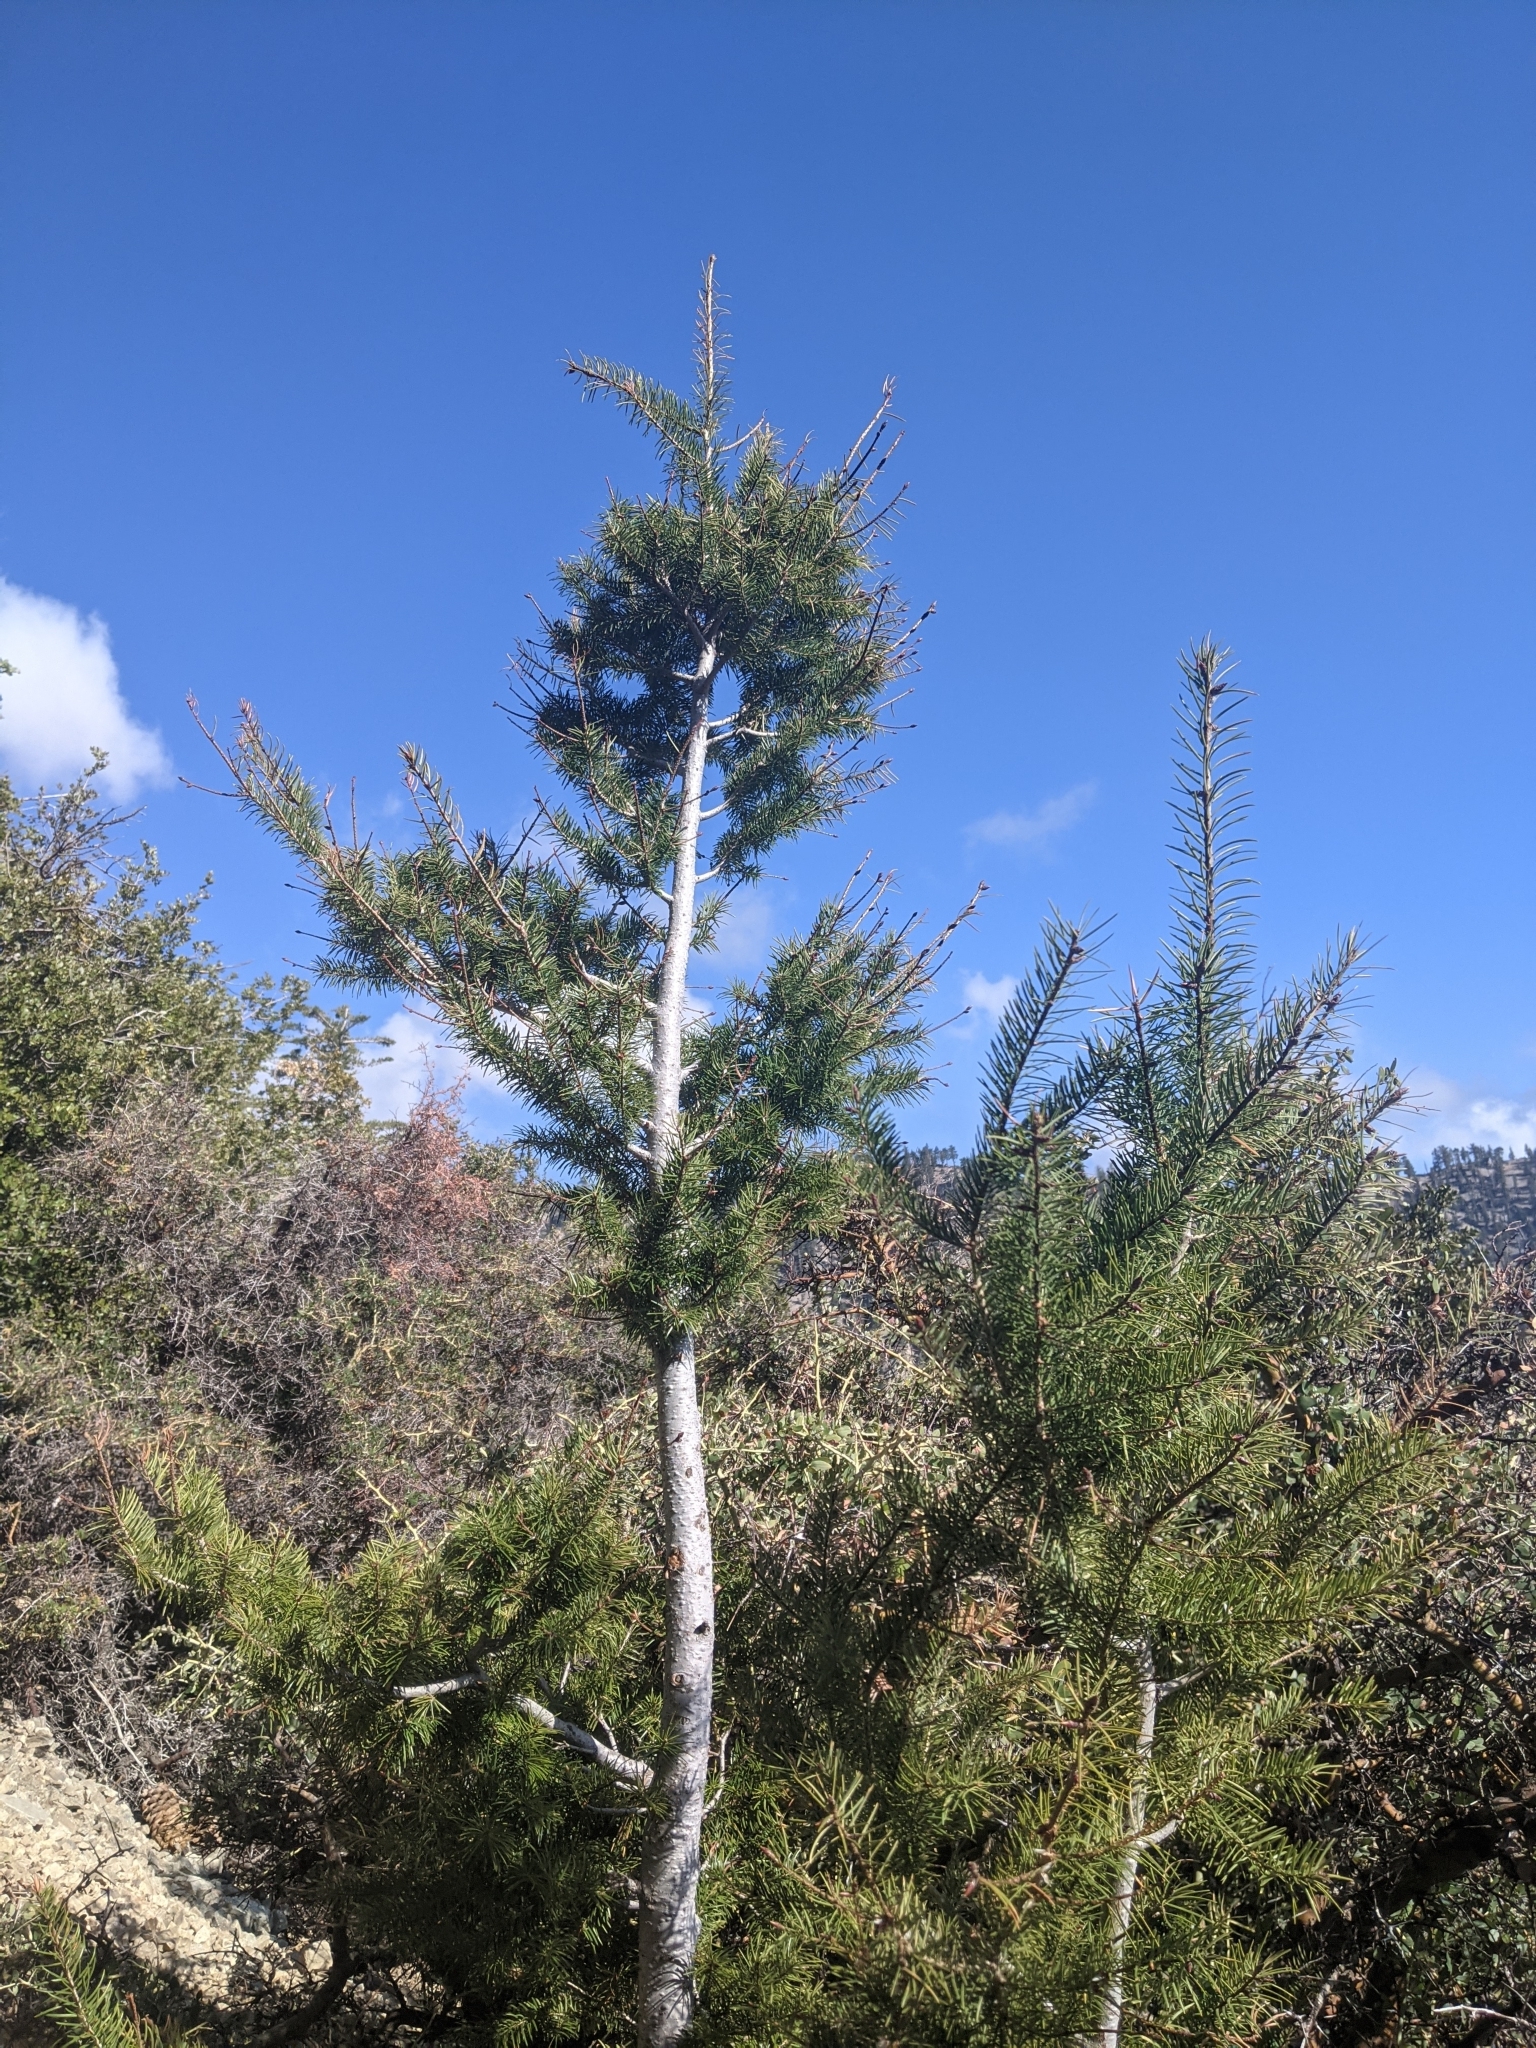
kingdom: Plantae
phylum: Tracheophyta
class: Pinopsida
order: Pinales
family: Pinaceae
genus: Abies
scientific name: Abies concolor
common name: Colorado fir
